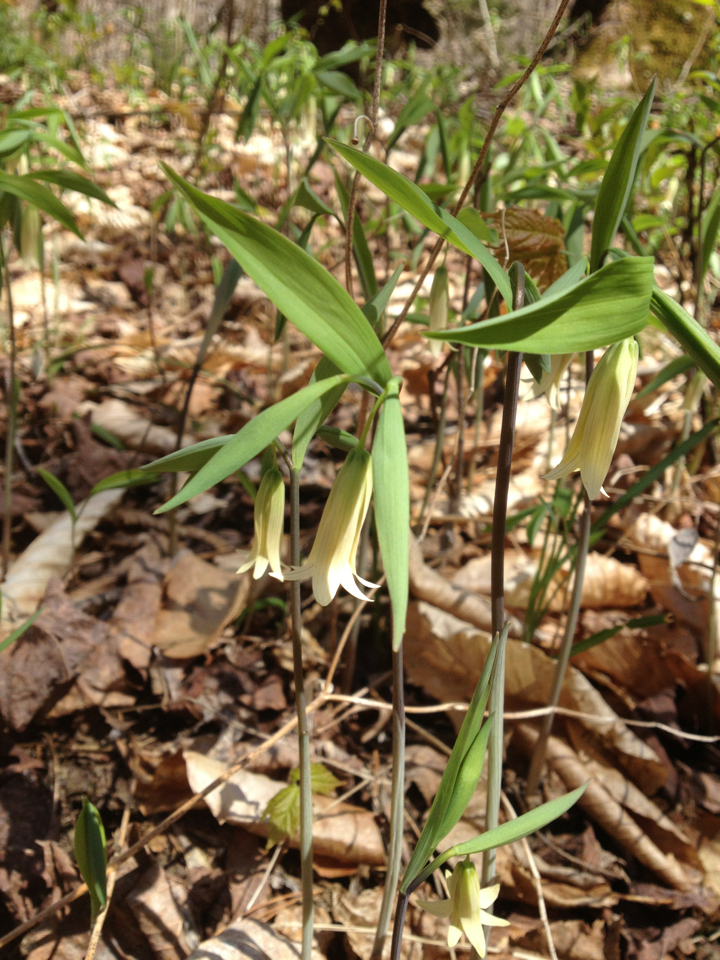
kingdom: Plantae
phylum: Tracheophyta
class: Liliopsida
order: Liliales
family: Colchicaceae
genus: Uvularia
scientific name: Uvularia sessilifolia
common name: Straw-lily
